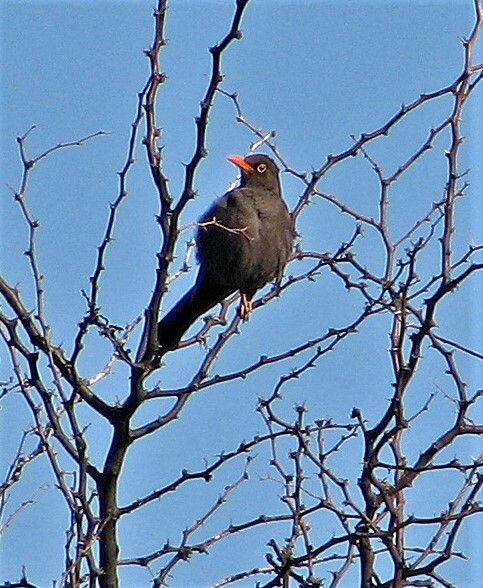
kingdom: Animalia
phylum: Chordata
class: Aves
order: Passeriformes
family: Turdidae
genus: Turdus
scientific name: Turdus chiguanco
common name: Chiguanco thrush
